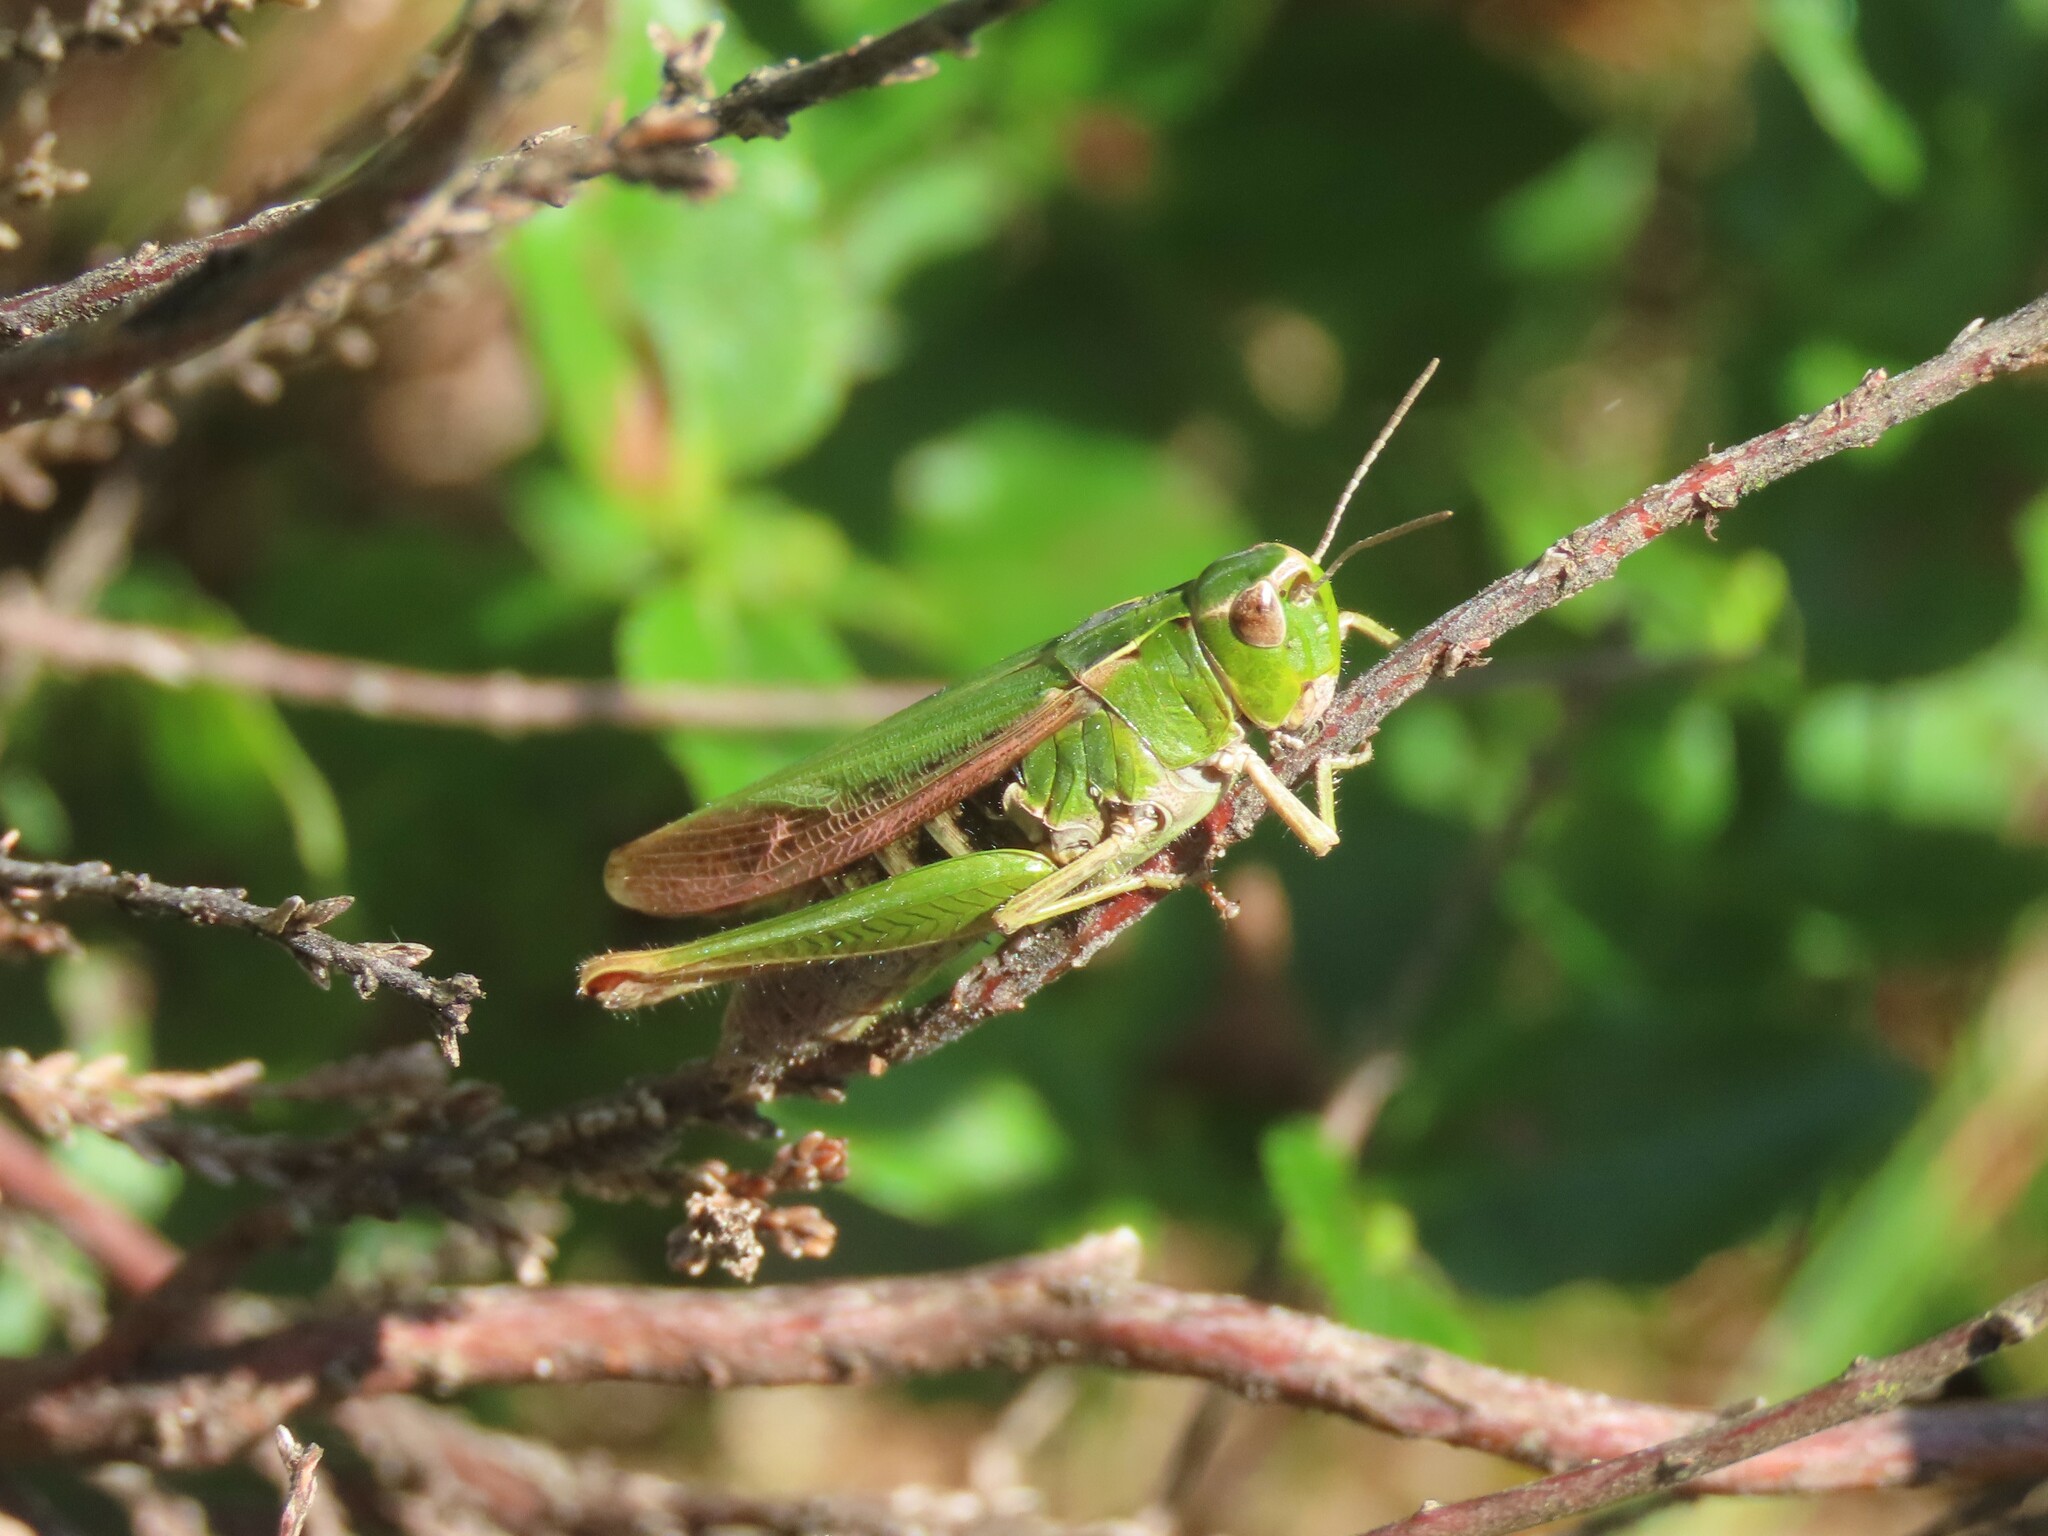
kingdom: Animalia
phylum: Arthropoda
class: Insecta
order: Orthoptera
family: Acrididae
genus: Omocestus
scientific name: Omocestus viridulus
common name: Common green grasshopper
